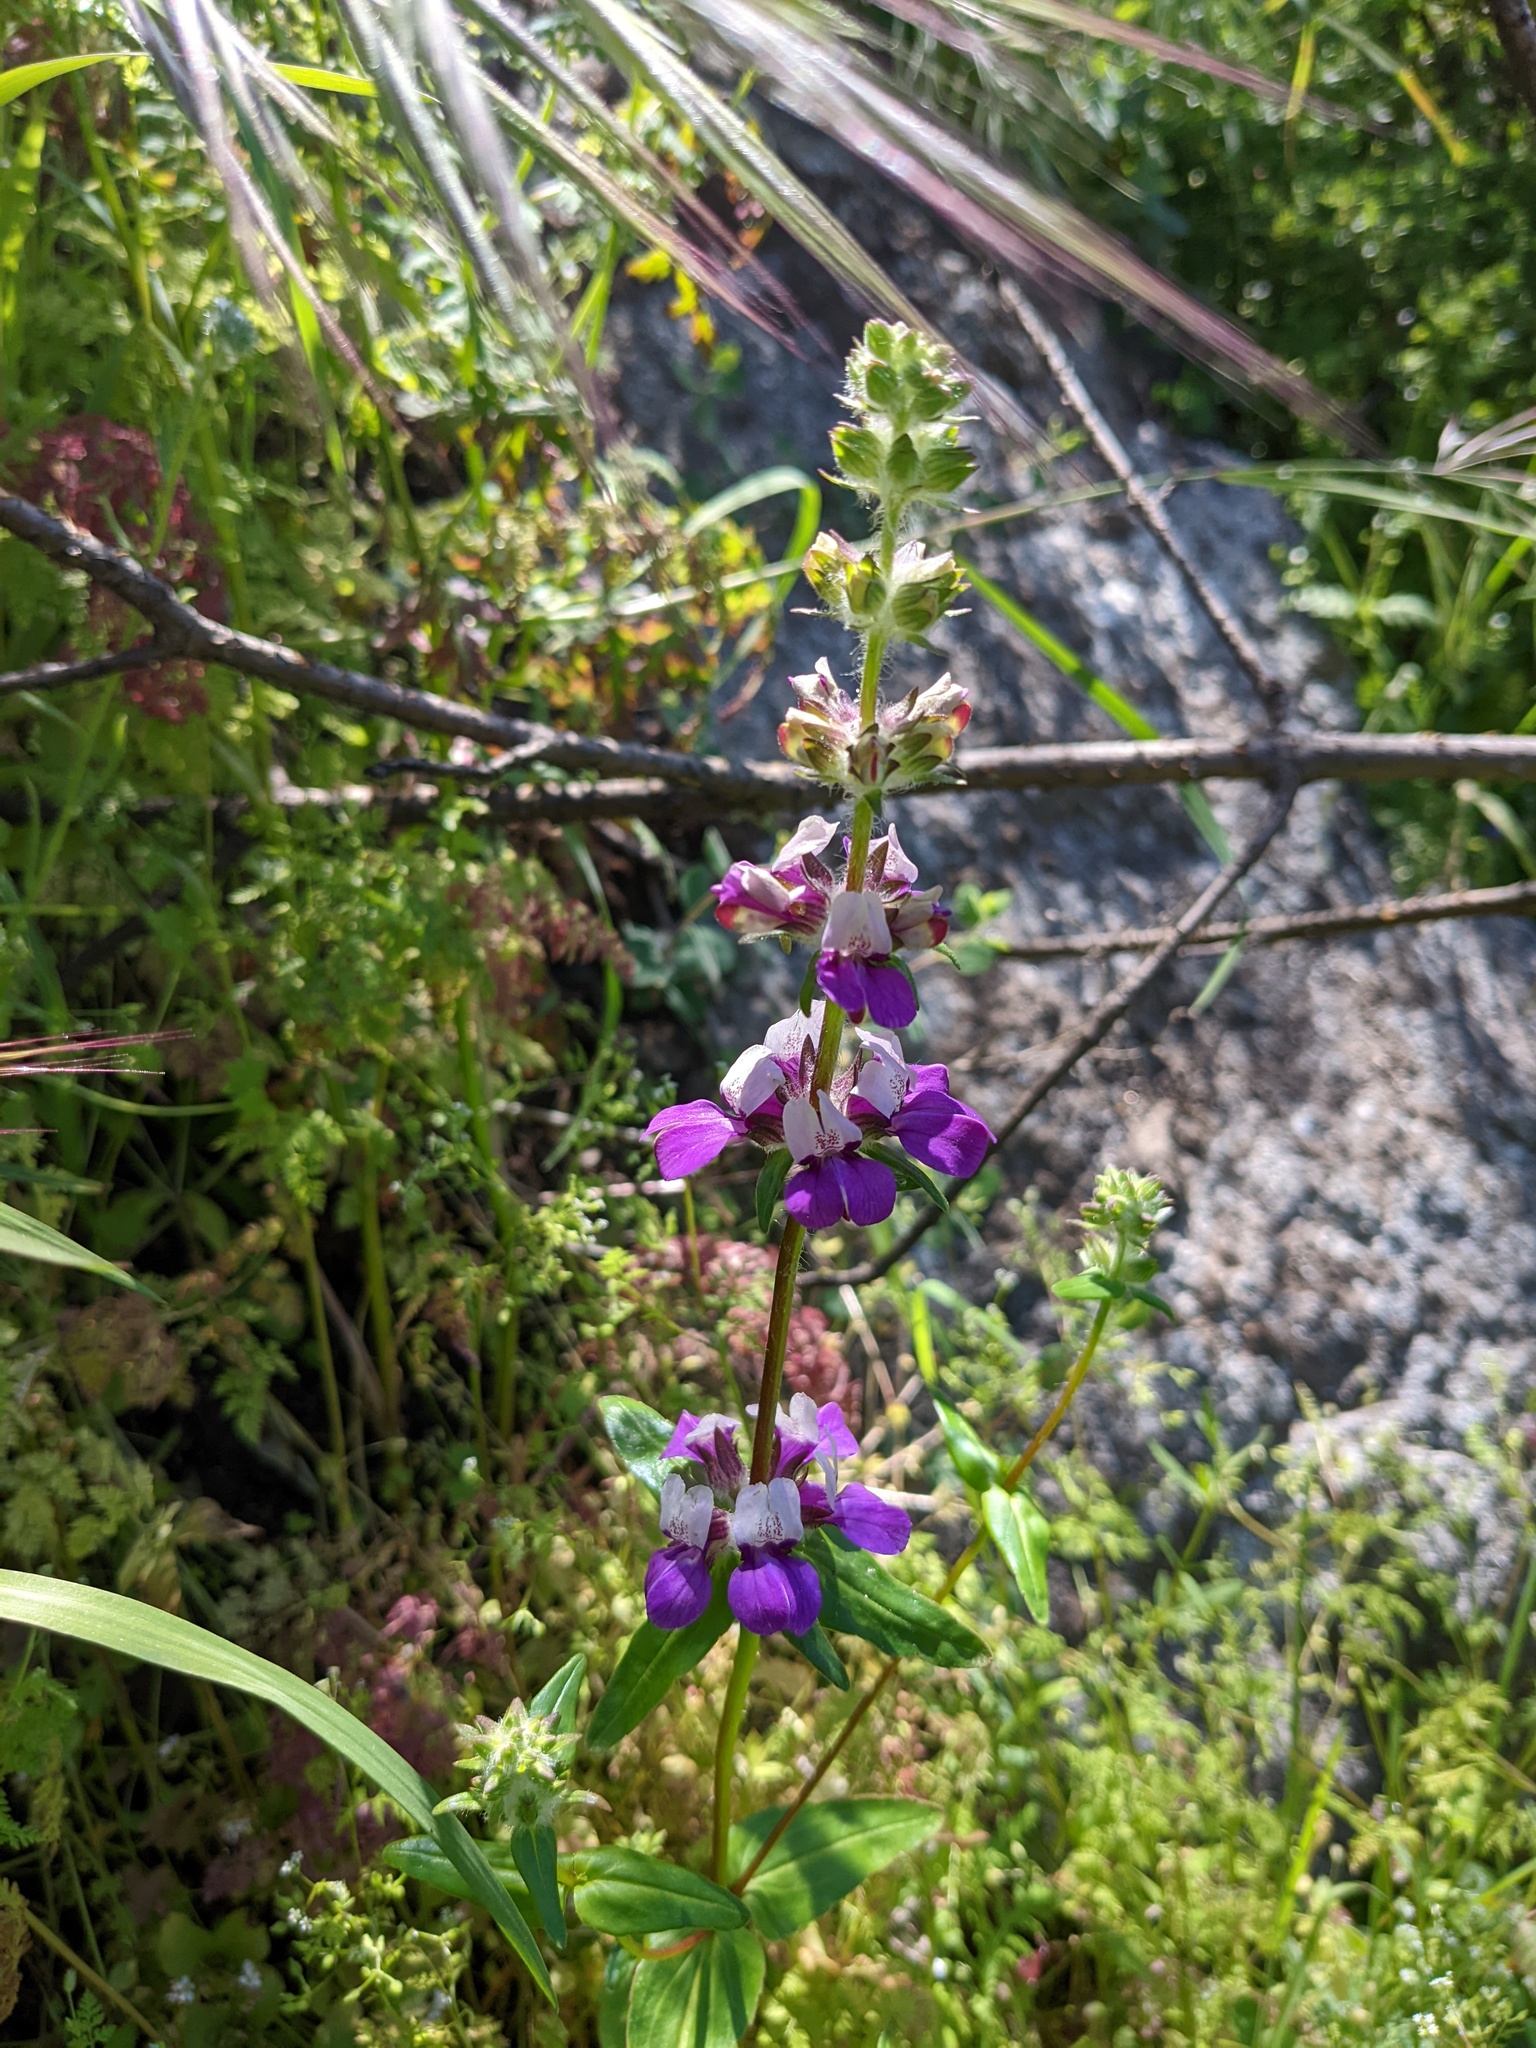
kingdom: Plantae
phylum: Tracheophyta
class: Magnoliopsida
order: Lamiales
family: Plantaginaceae
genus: Collinsia
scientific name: Collinsia heterophylla
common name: Chinese-houses
